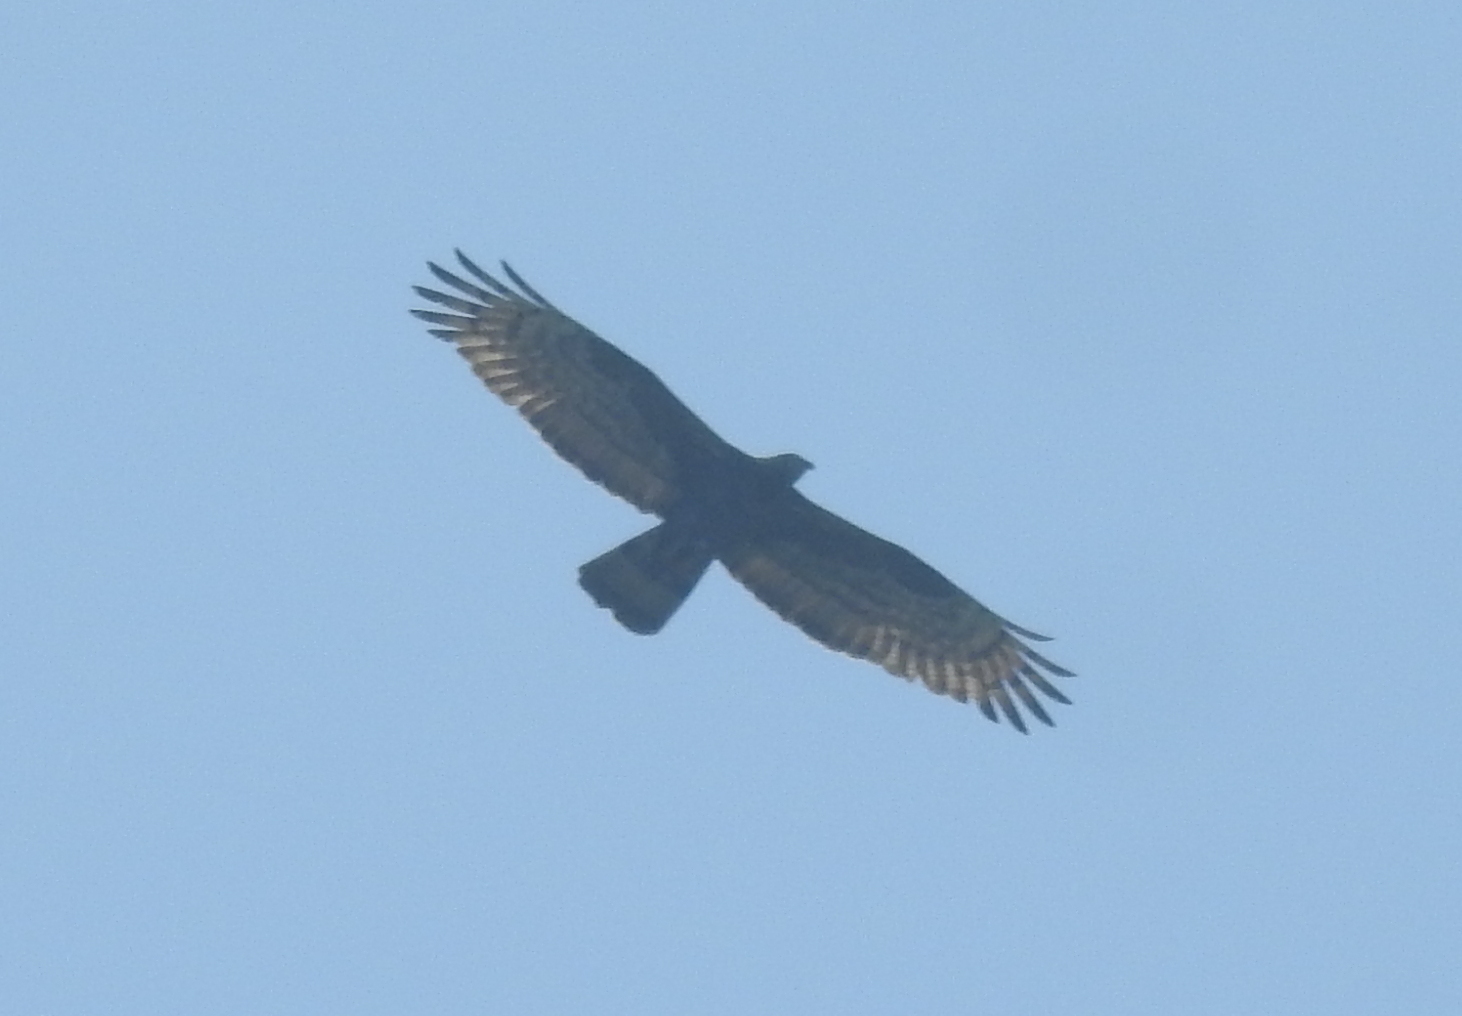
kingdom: Animalia
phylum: Chordata
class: Aves
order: Accipitriformes
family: Accipitridae
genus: Pernis
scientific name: Pernis ptilorhynchus
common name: Crested honey buzzard
